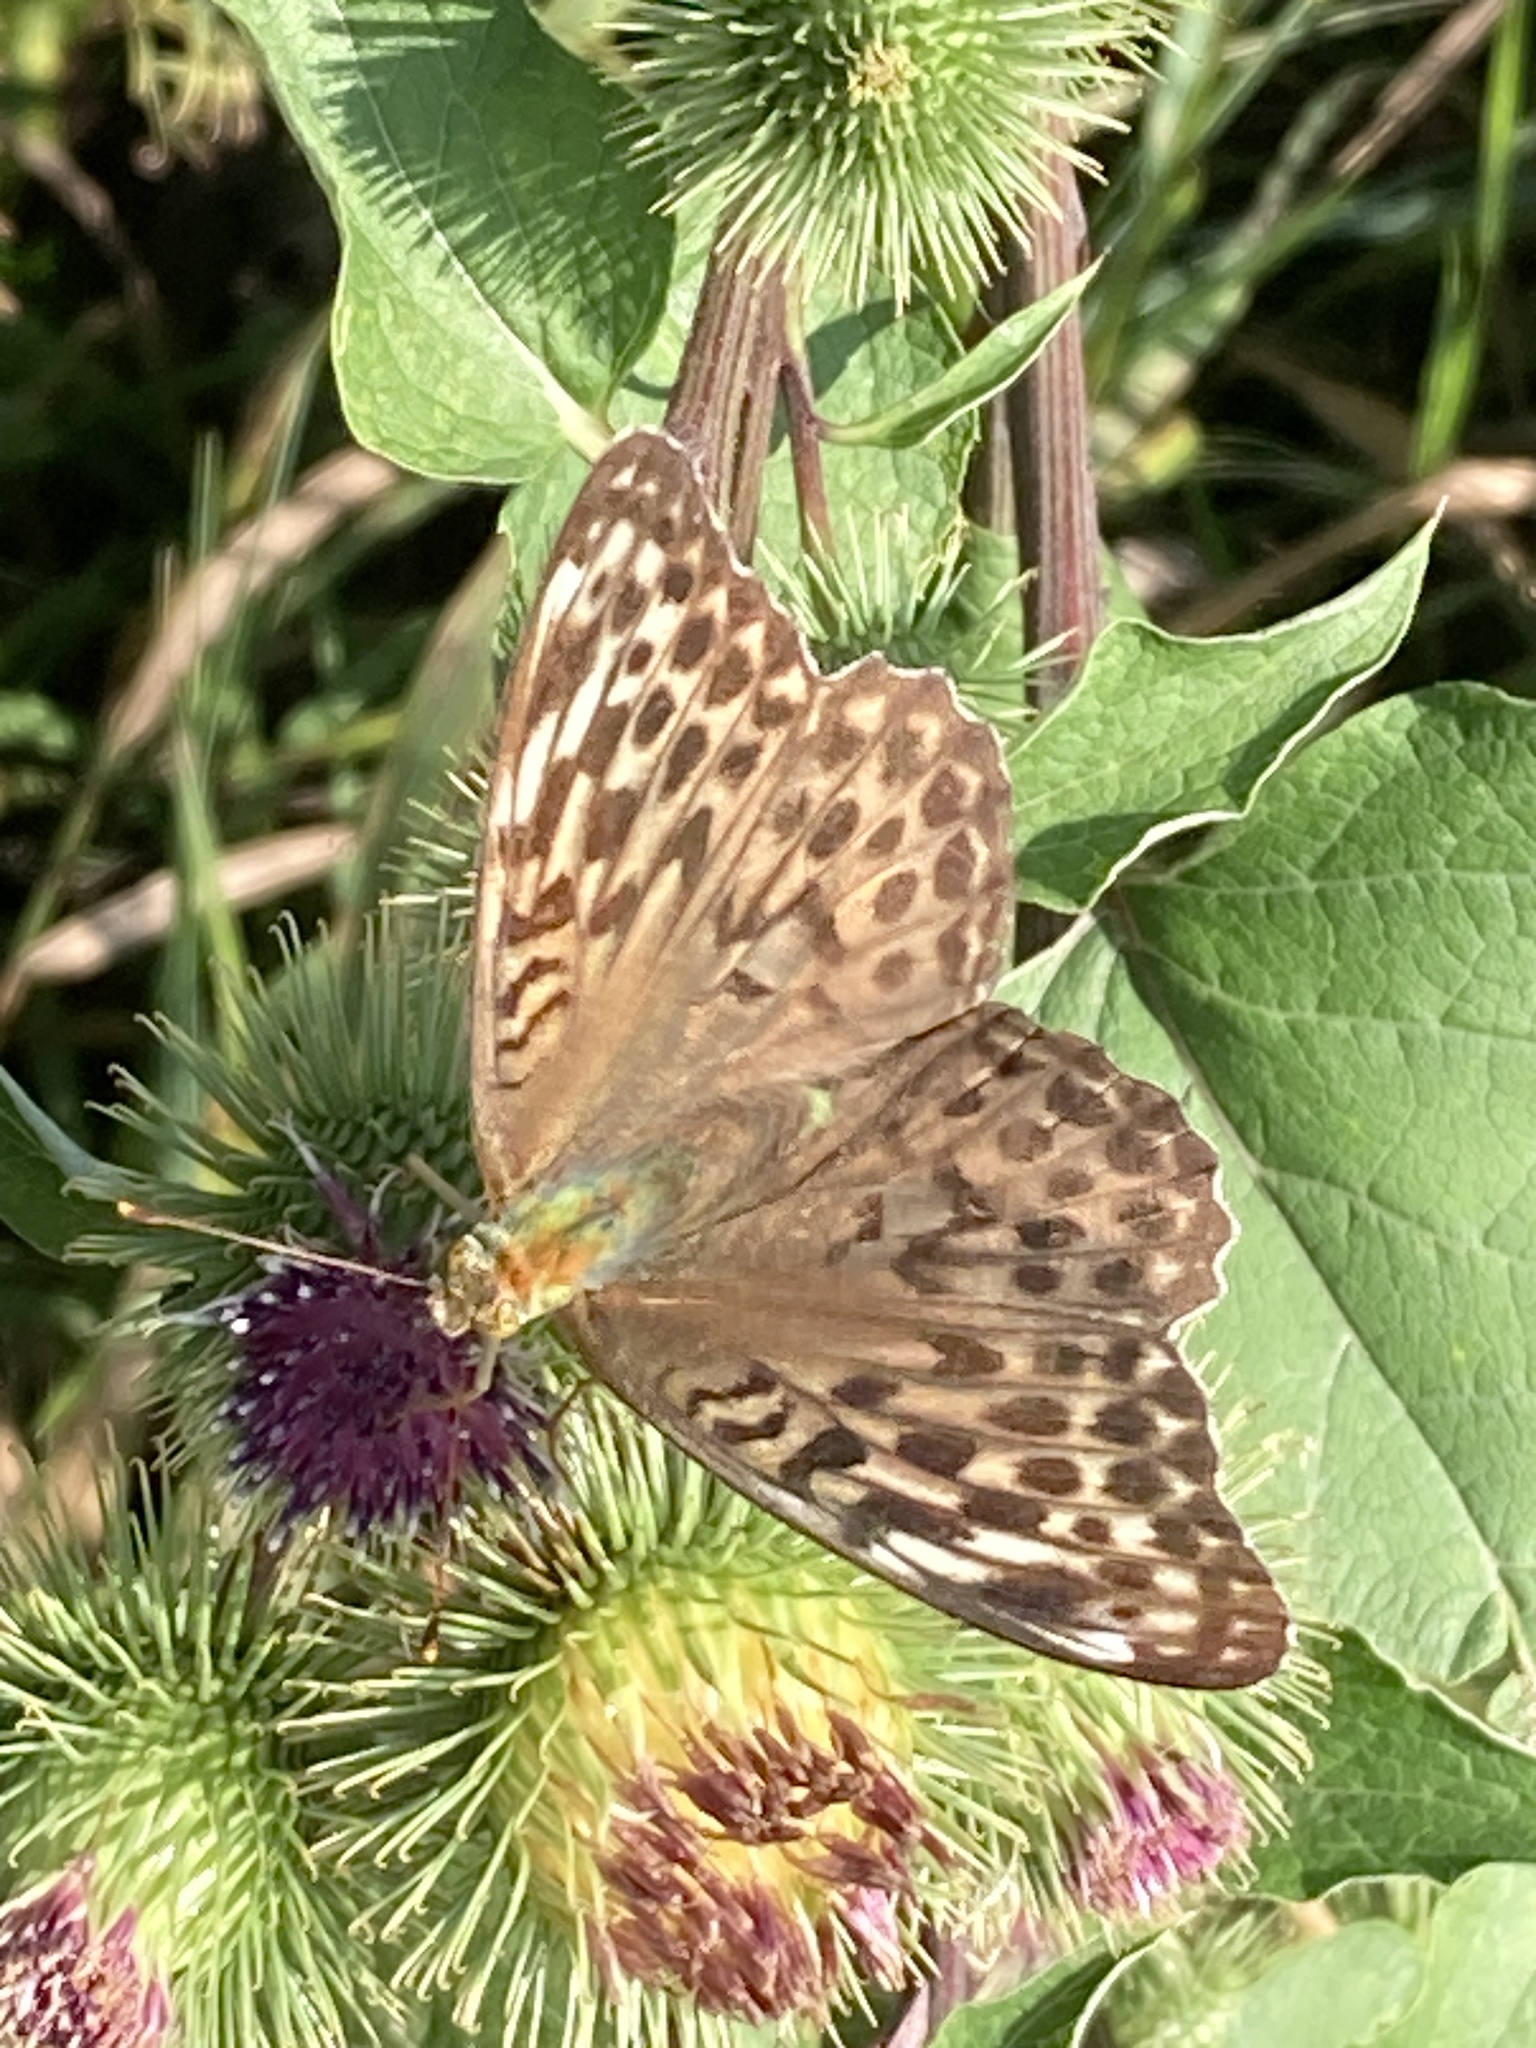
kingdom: Animalia
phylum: Arthropoda
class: Insecta
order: Lepidoptera
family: Nymphalidae
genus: Argynnis
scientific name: Argynnis paphia
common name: Silver-washed fritillary
